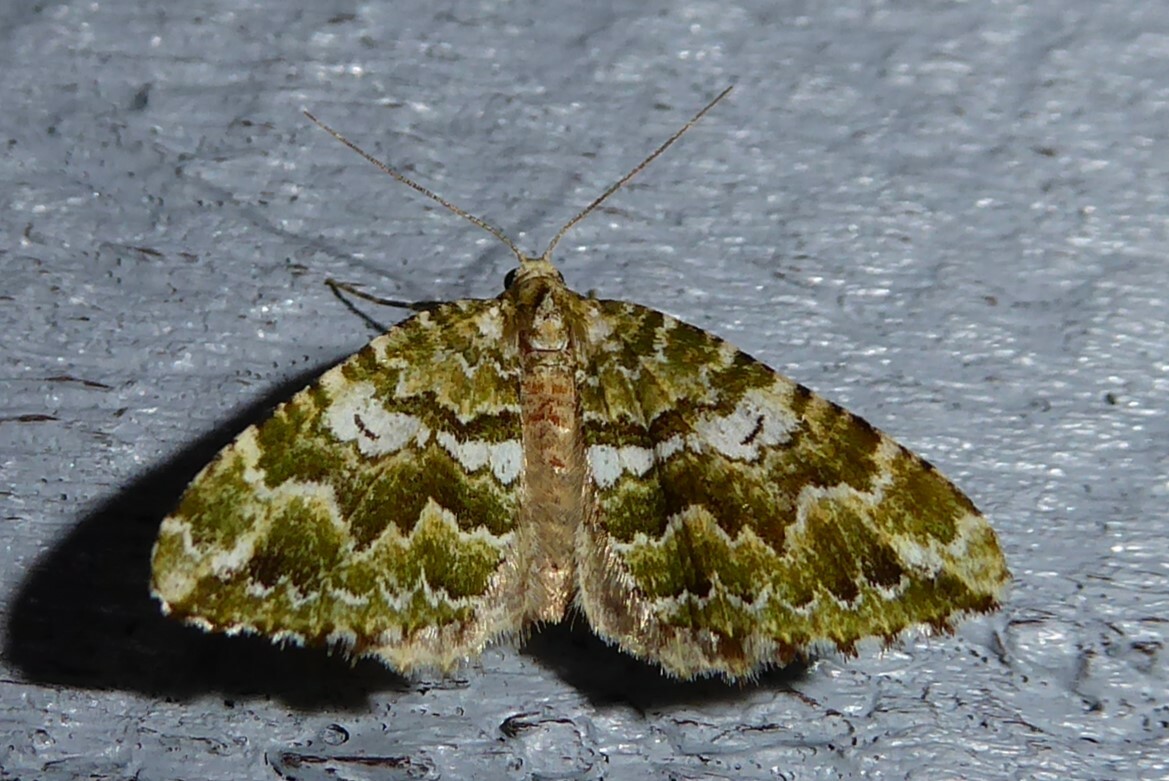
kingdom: Animalia
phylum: Arthropoda
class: Insecta
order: Lepidoptera
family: Geometridae
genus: Asaphodes
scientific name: Asaphodes beata
